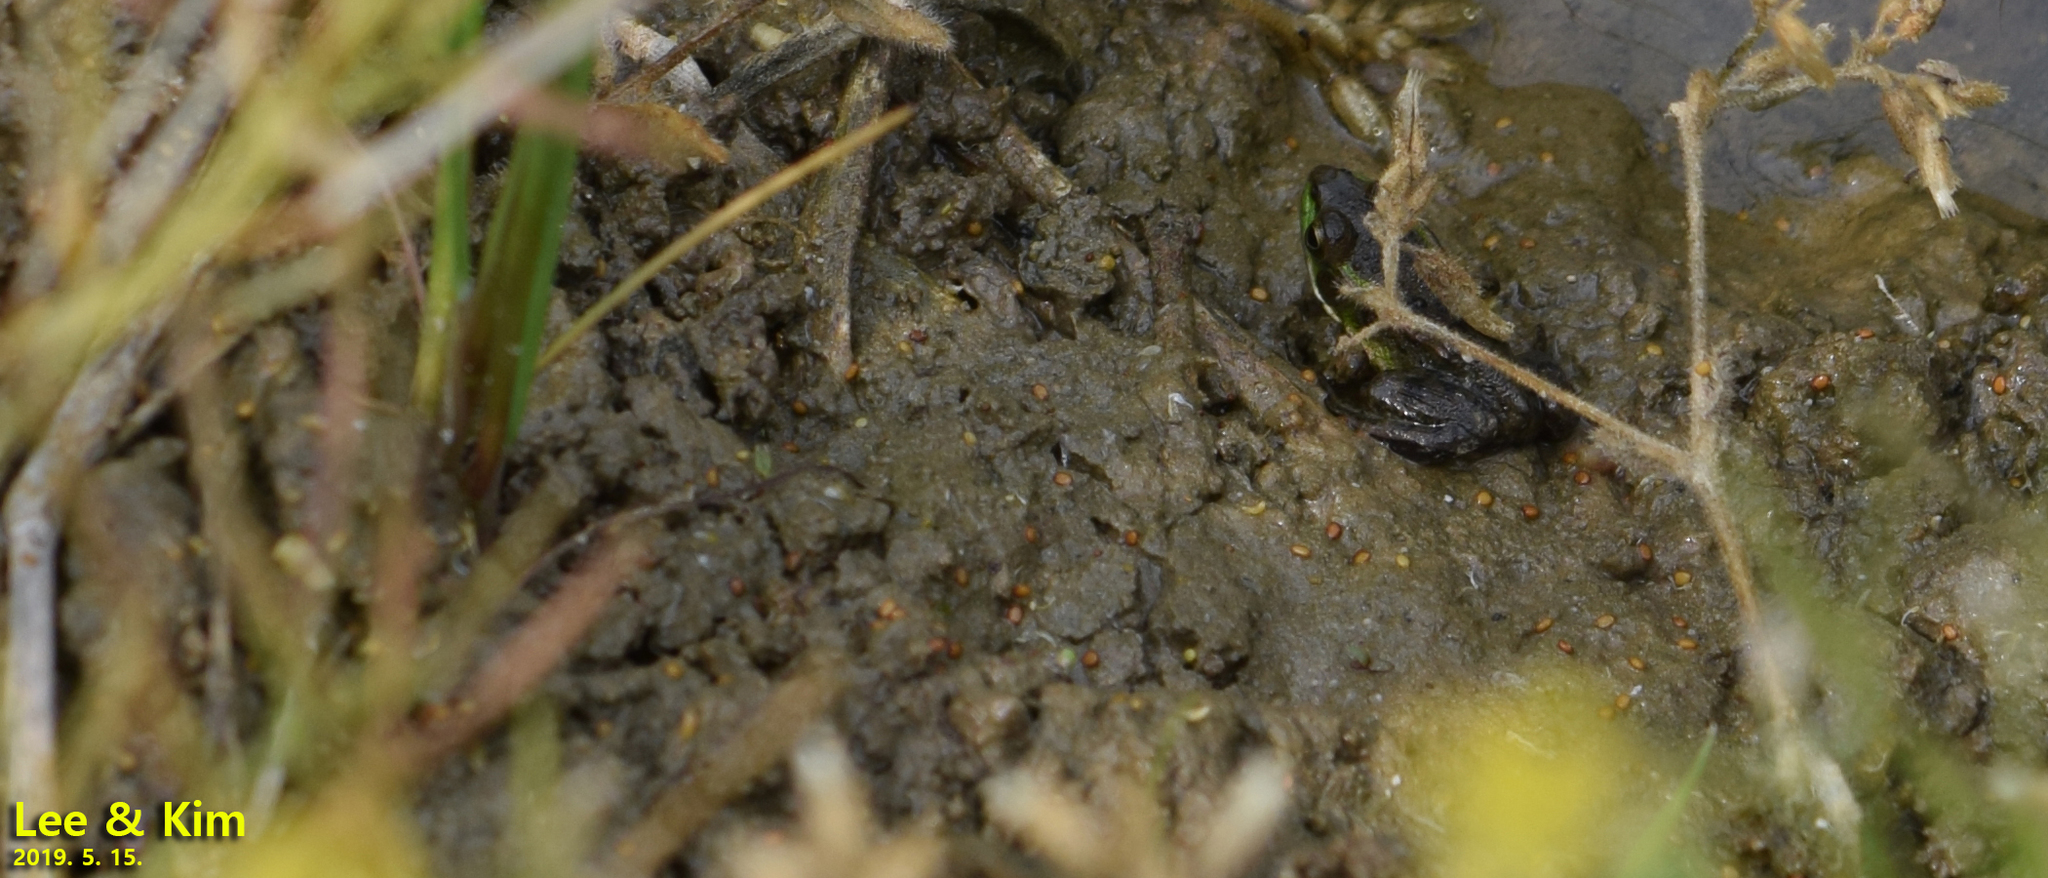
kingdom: Animalia
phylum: Chordata
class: Amphibia
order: Anura
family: Ranidae
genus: Pelophylax
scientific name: Pelophylax chosenicus
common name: Gold-spotted pond frog
